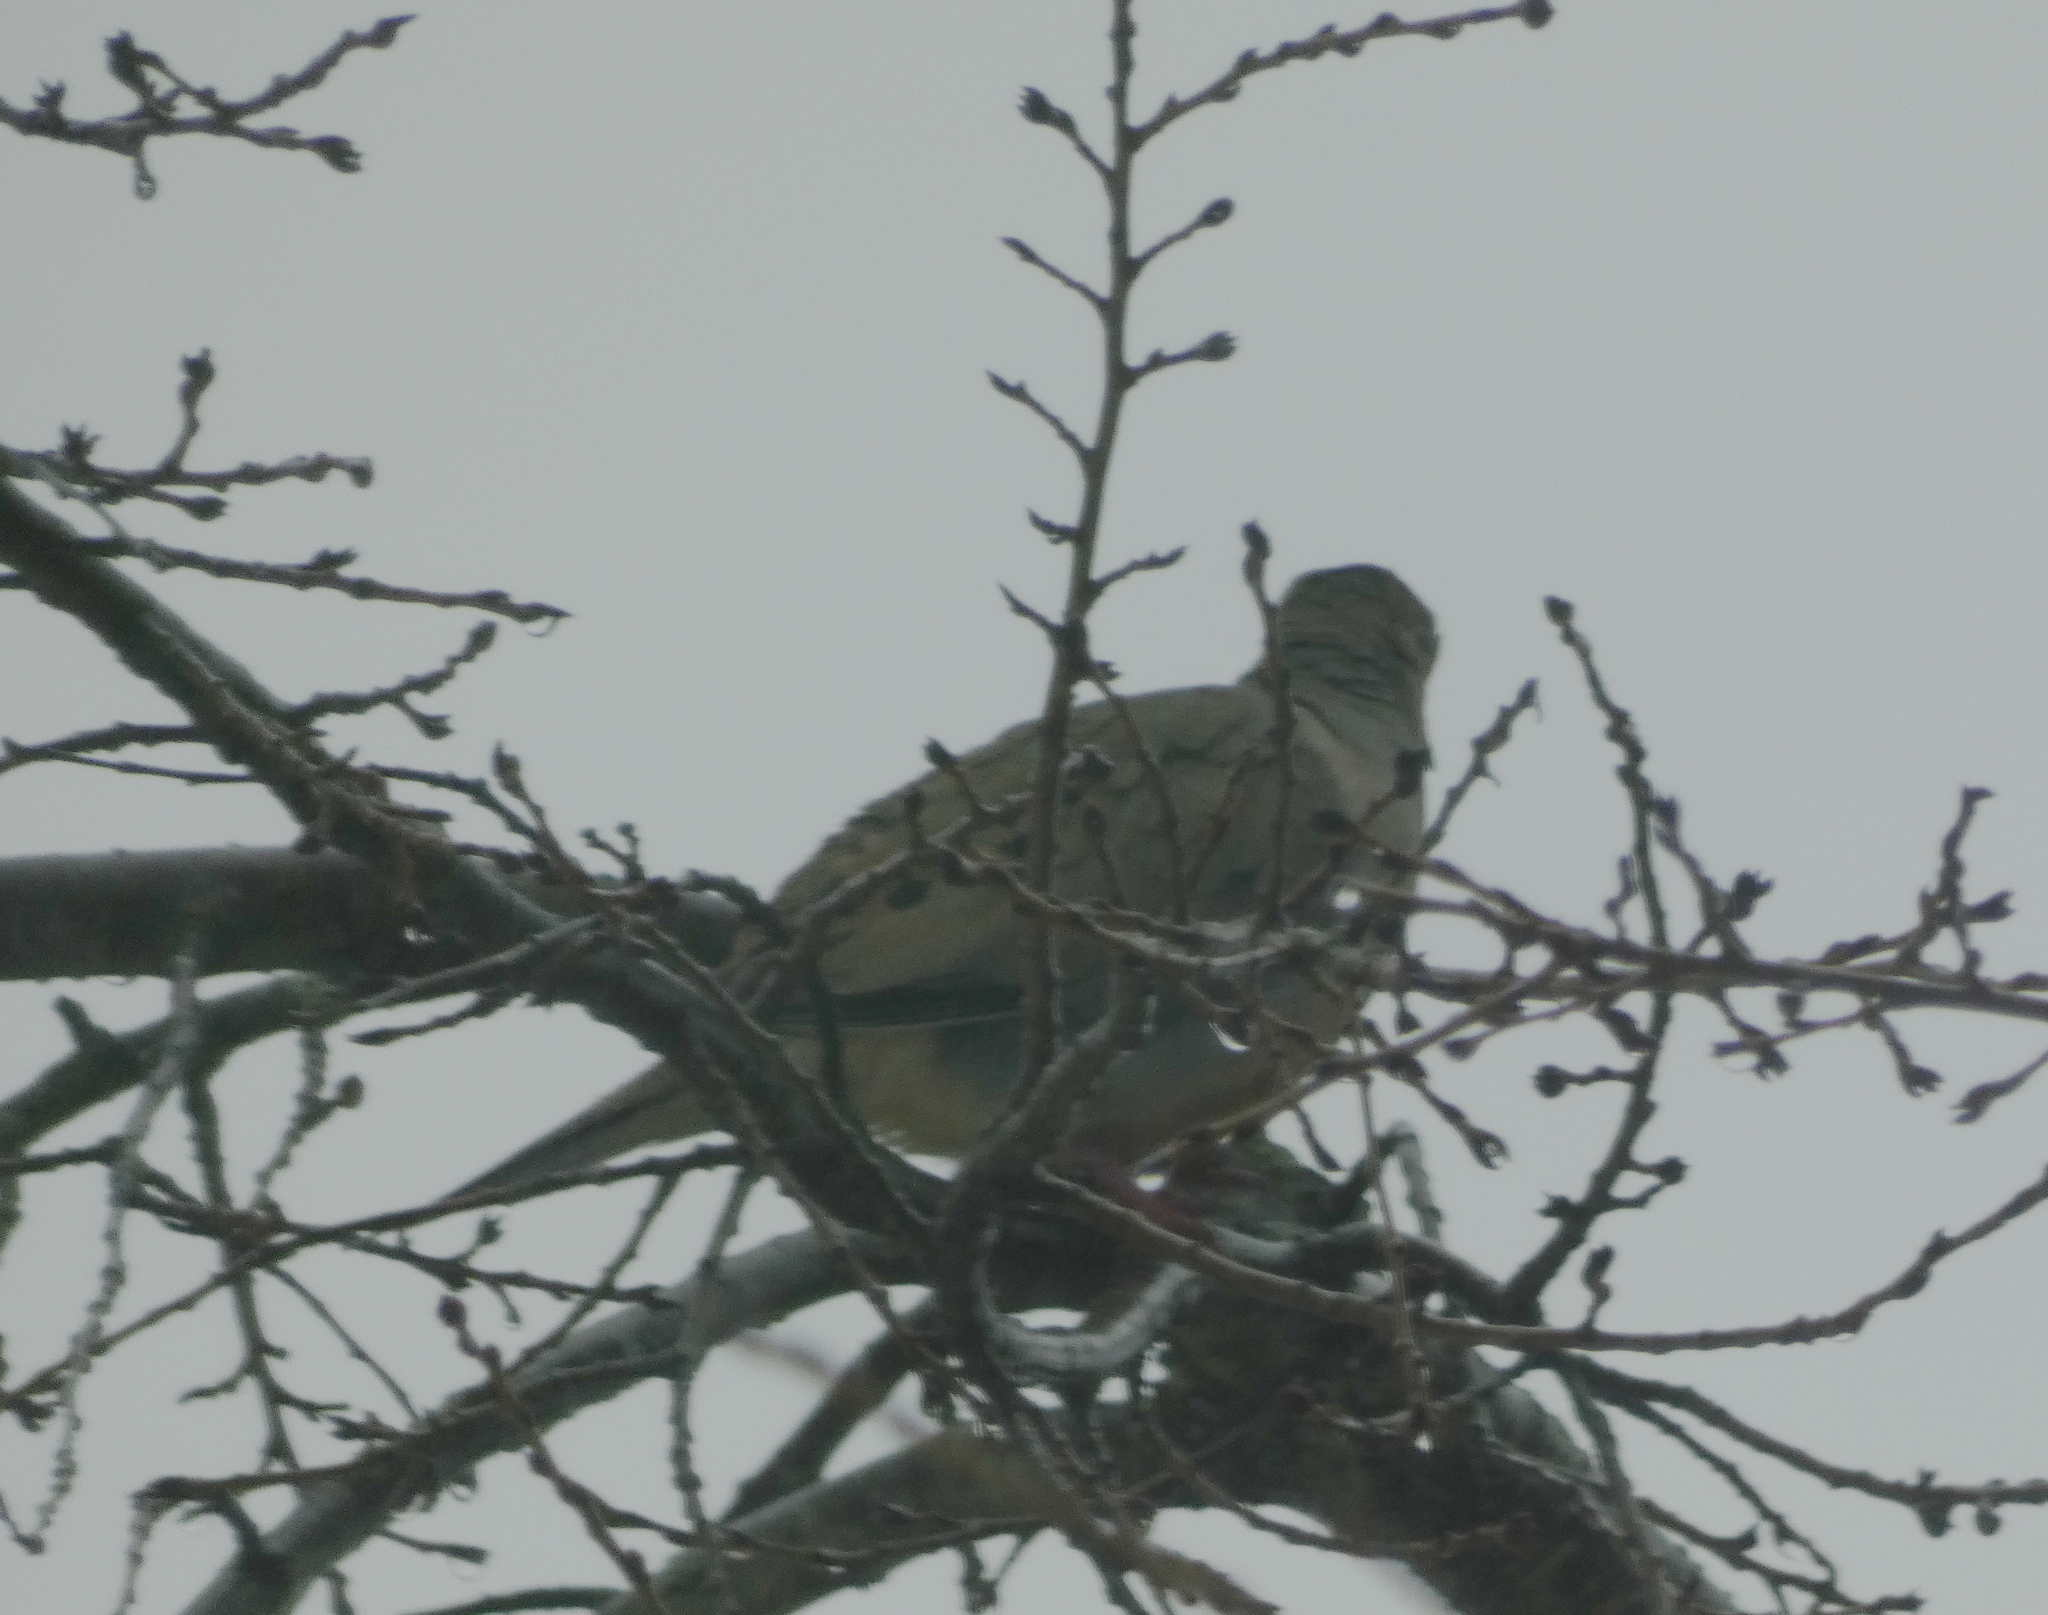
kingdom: Animalia
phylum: Chordata
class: Aves
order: Columbiformes
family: Columbidae
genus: Zenaida
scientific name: Zenaida macroura
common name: Mourning dove
